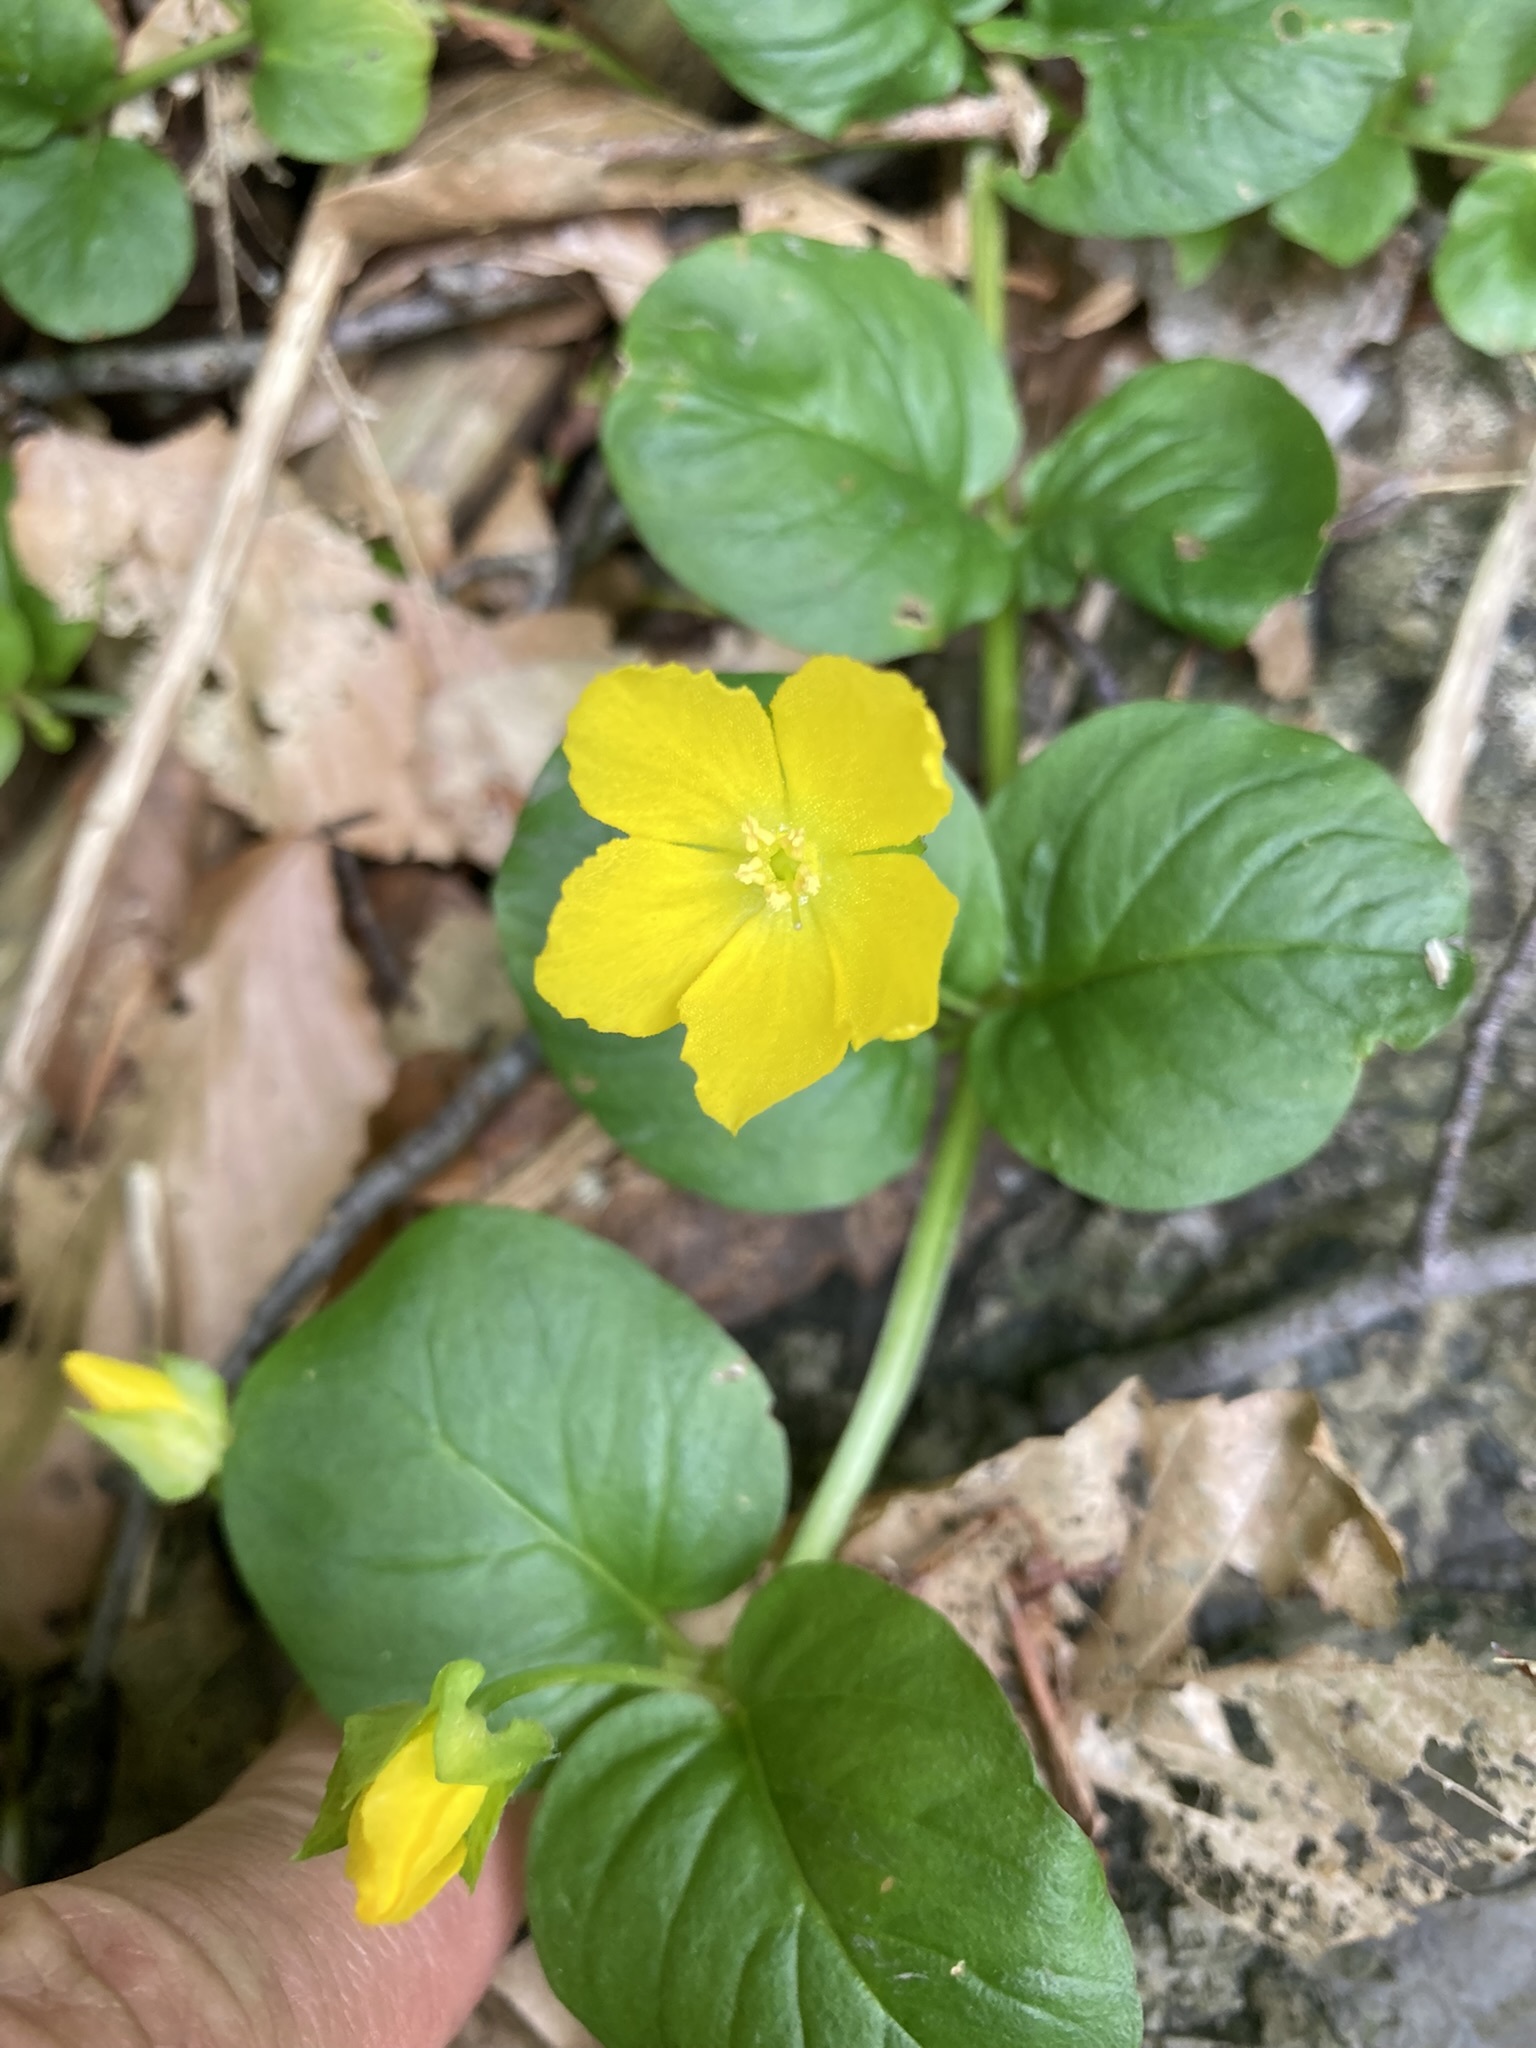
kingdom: Plantae
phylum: Tracheophyta
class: Magnoliopsida
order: Ericales
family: Primulaceae
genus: Lysimachia
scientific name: Lysimachia nummularia
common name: Moneywort
